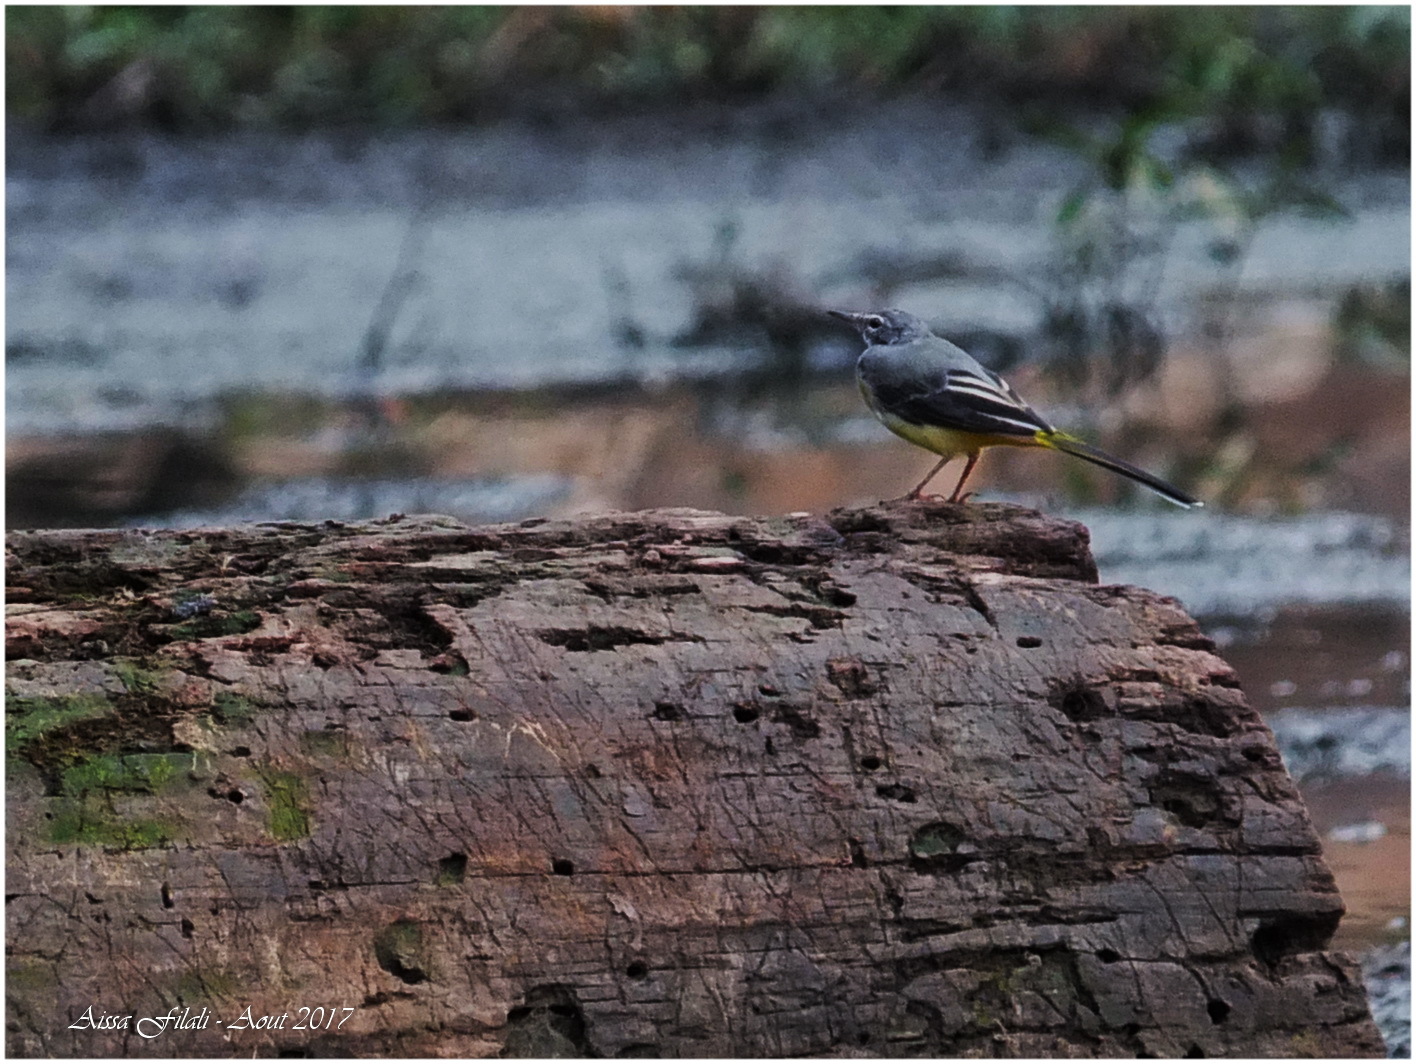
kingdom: Animalia
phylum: Chordata
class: Aves
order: Passeriformes
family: Motacillidae
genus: Motacilla
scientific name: Motacilla cinerea
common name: Grey wagtail
